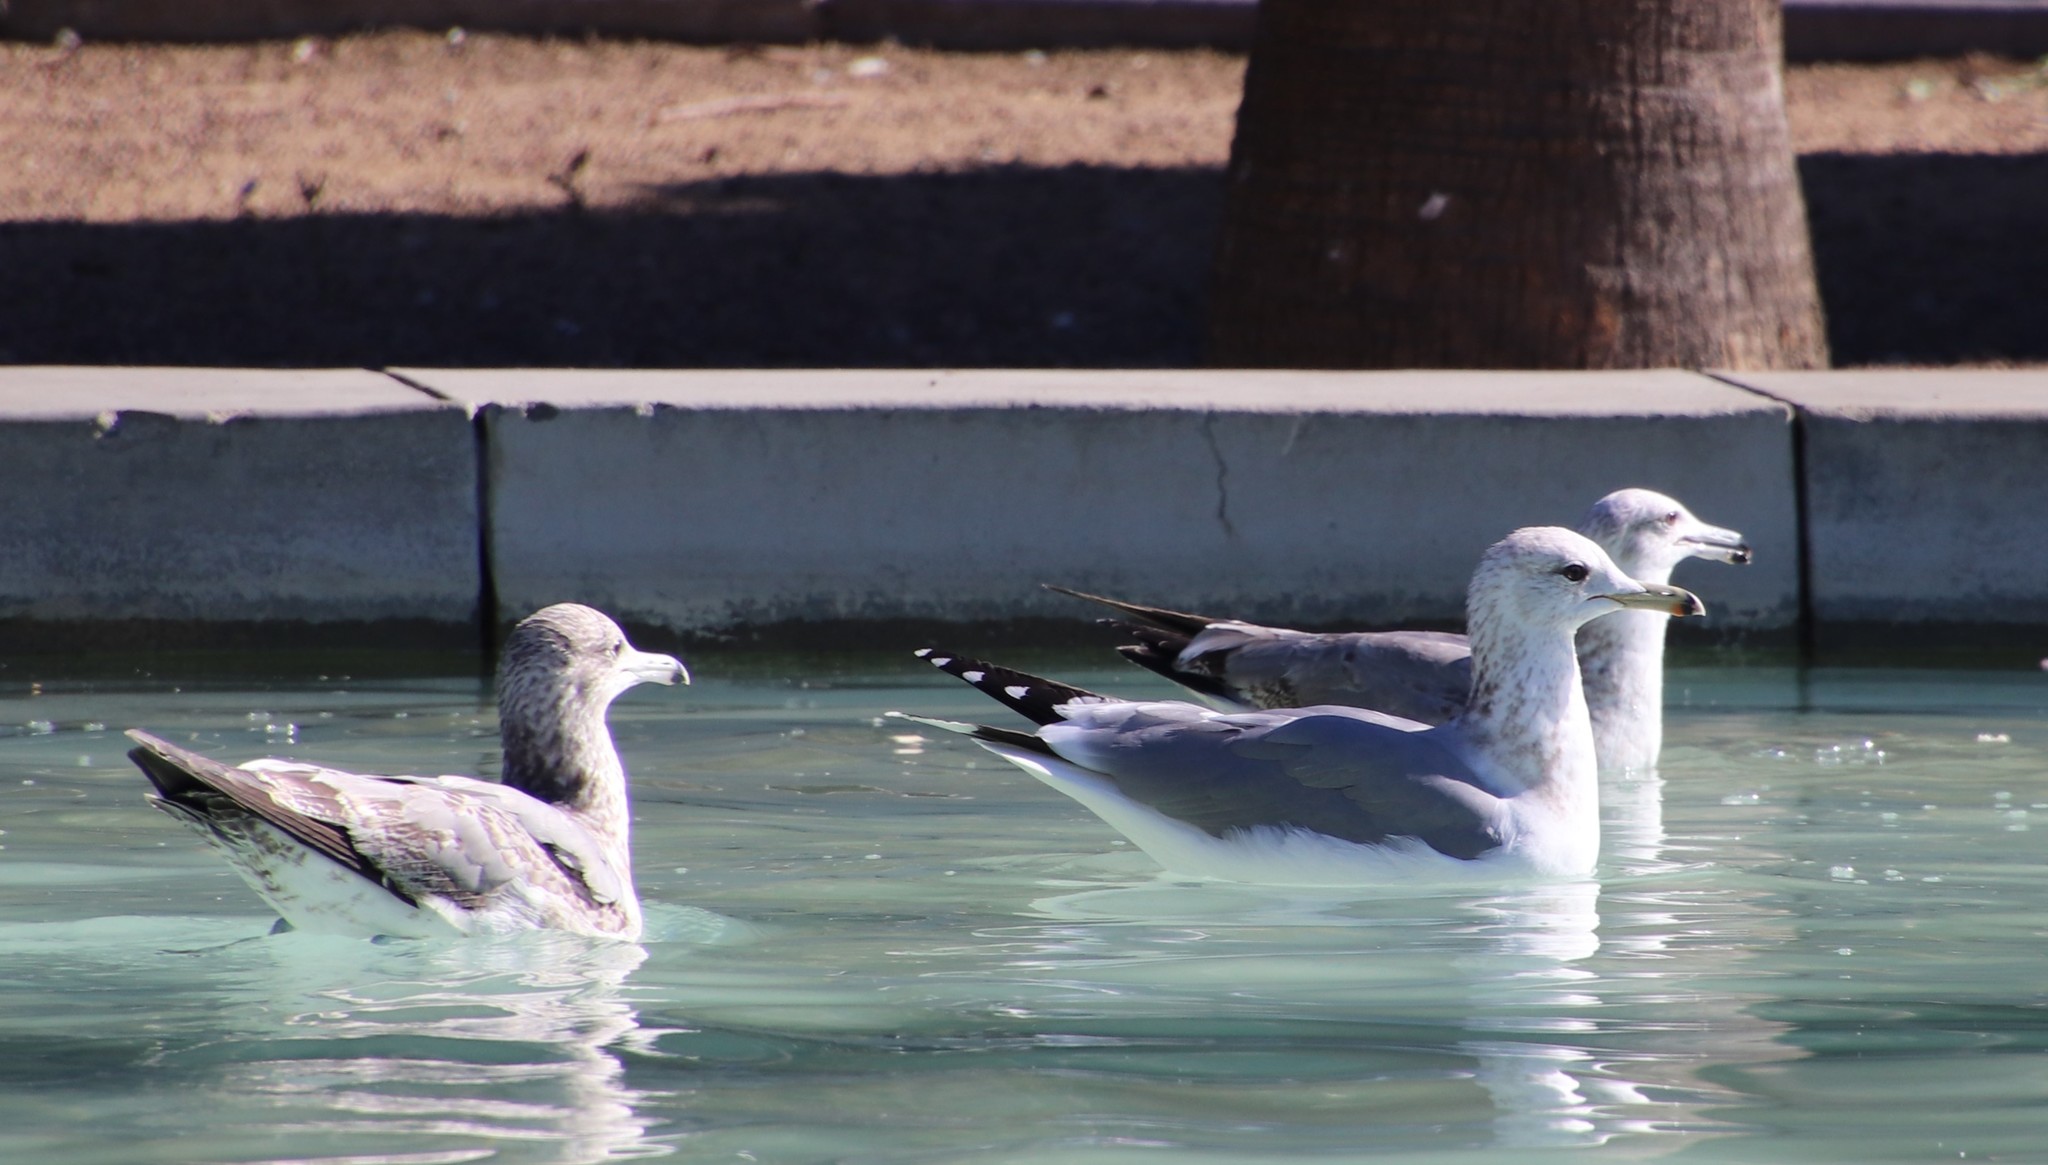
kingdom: Animalia
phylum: Chordata
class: Aves
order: Charadriiformes
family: Laridae
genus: Larus
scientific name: Larus californicus
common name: California gull
